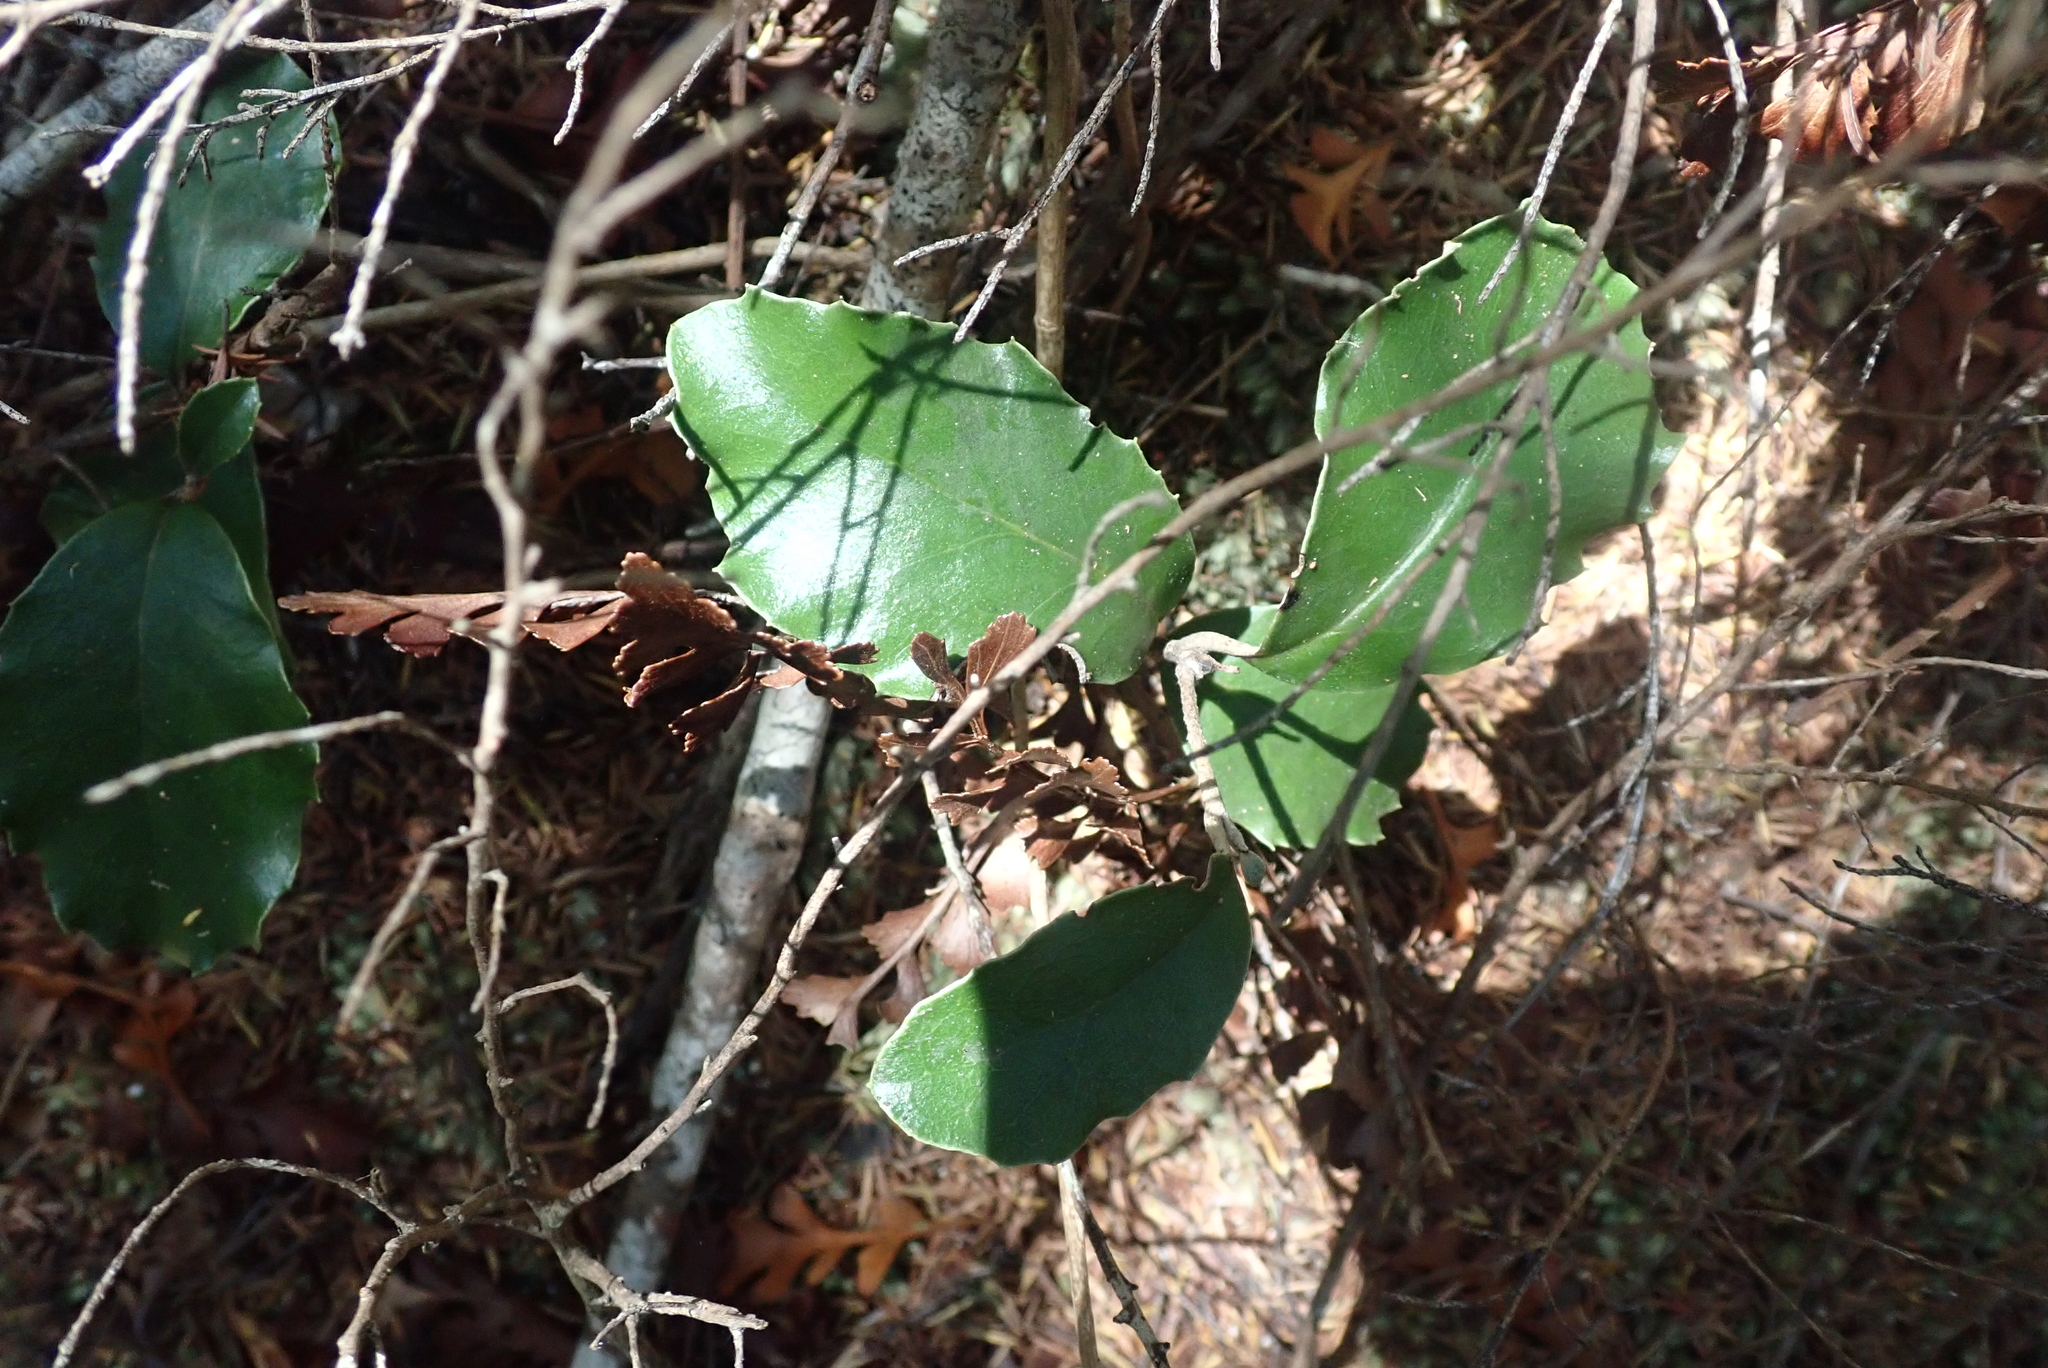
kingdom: Plantae
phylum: Tracheophyta
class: Magnoliopsida
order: Asterales
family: Asteraceae
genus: Olearia
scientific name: Olearia furfuracea
